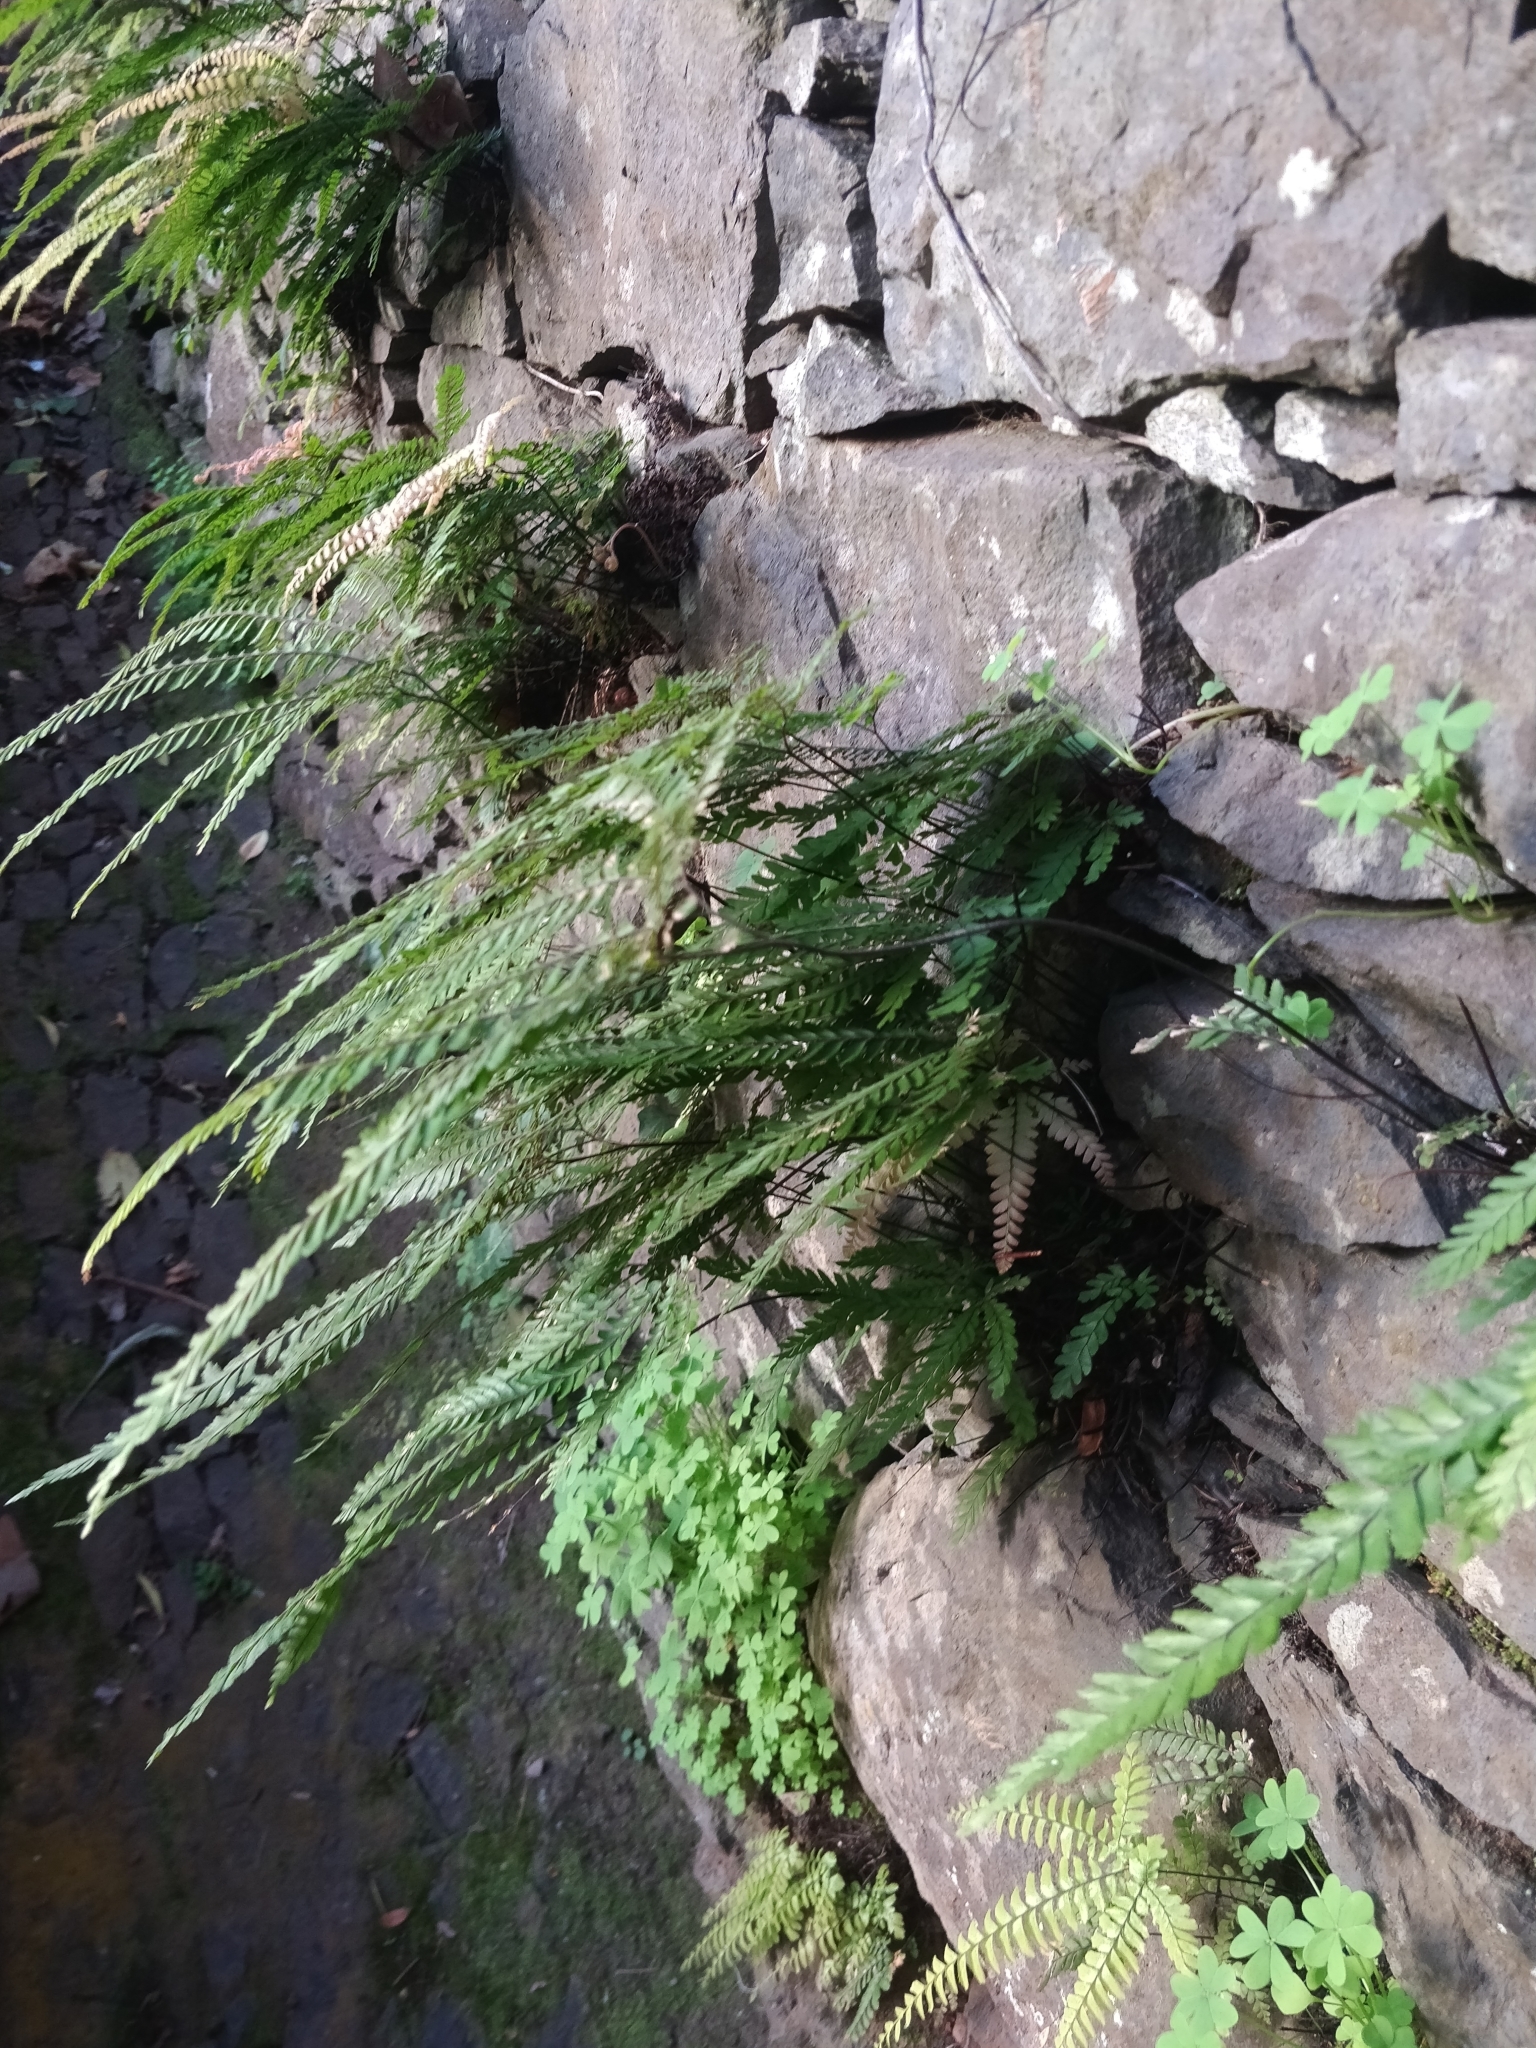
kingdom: Plantae
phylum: Tracheophyta
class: Polypodiopsida
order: Polypodiales
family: Pteridaceae
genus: Adiantum
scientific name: Adiantum hispidulum
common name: Rough maidenhair
